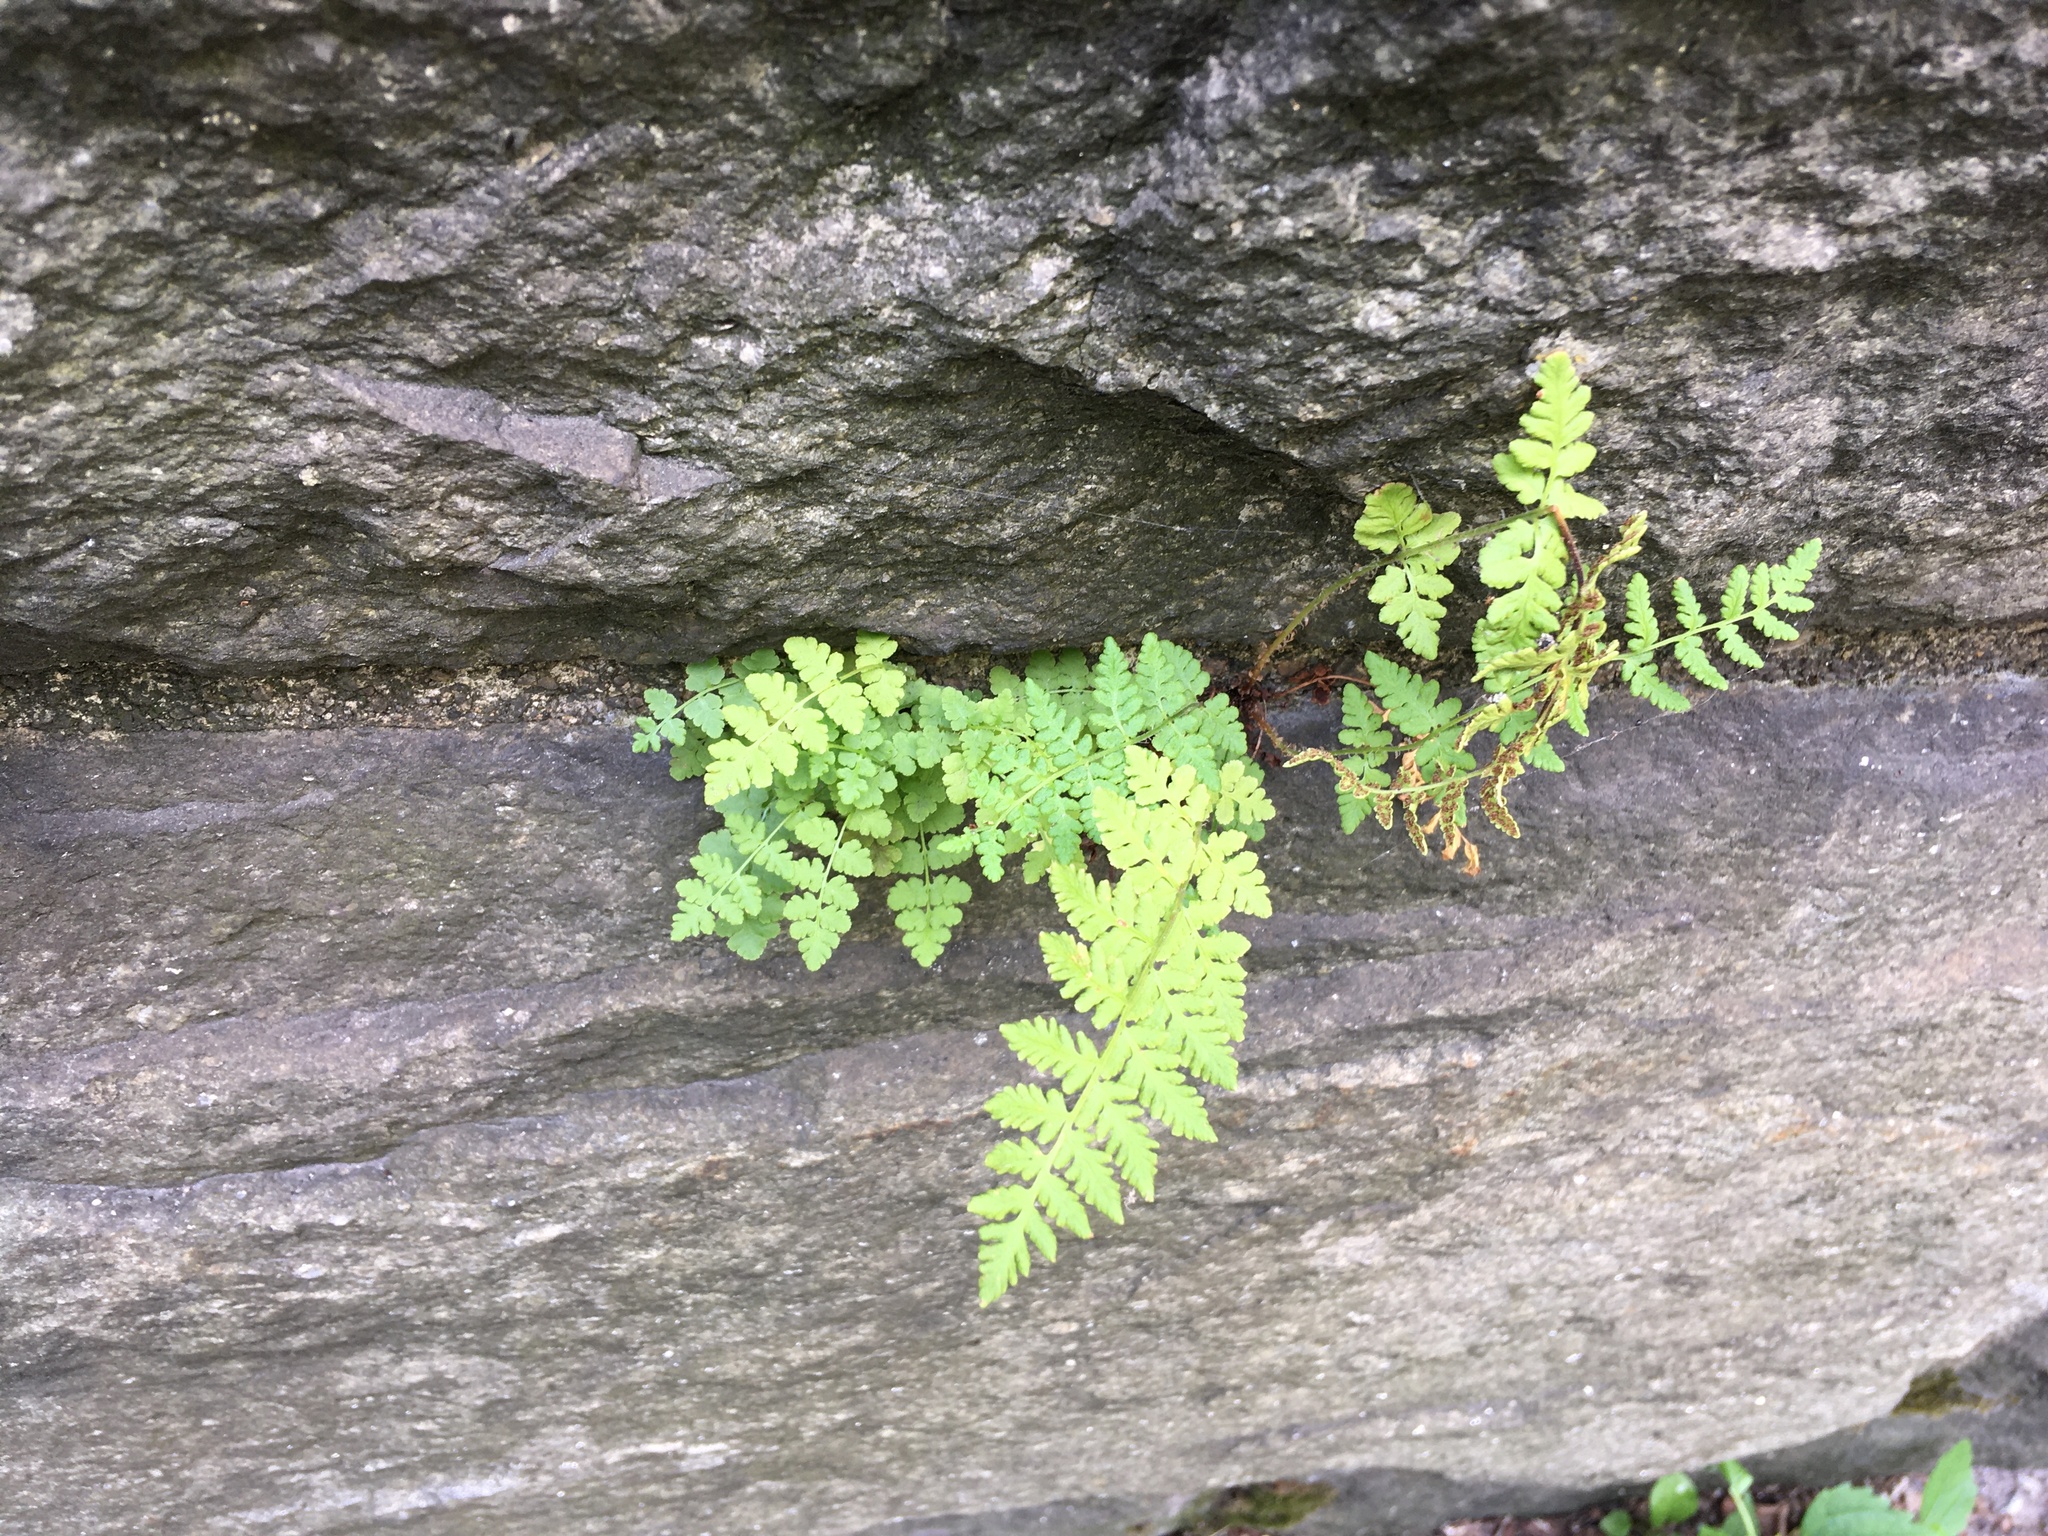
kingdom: Plantae
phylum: Tracheophyta
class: Polypodiopsida
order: Polypodiales
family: Woodsiaceae
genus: Physematium
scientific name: Physematium obtusum
